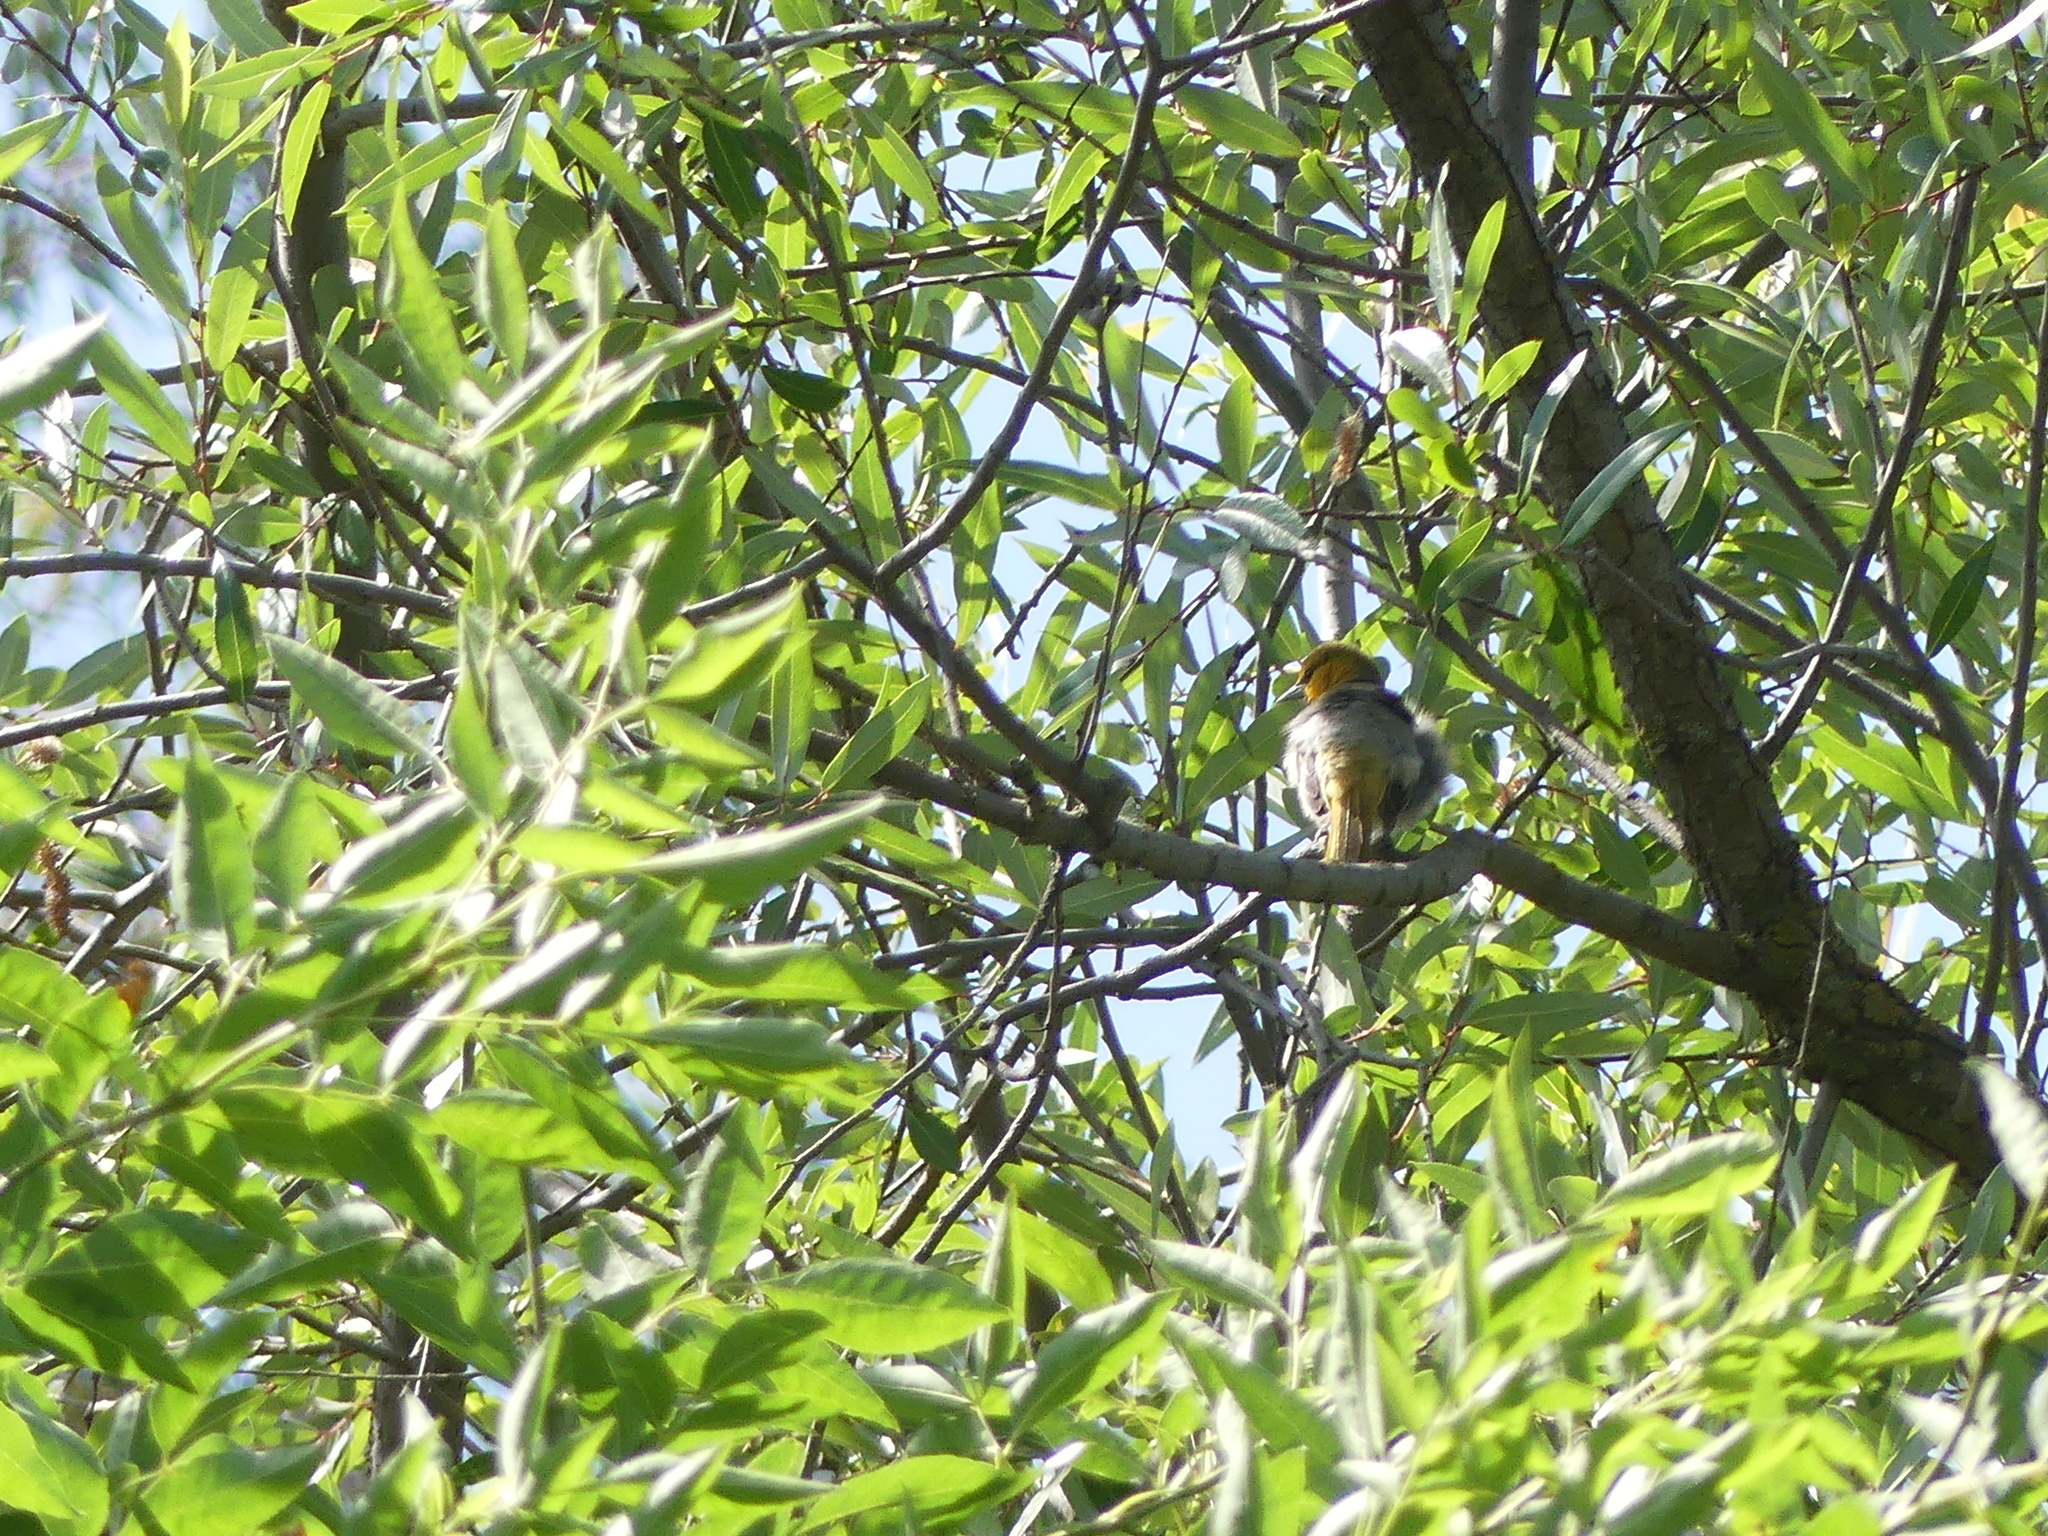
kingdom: Animalia
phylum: Chordata
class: Aves
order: Passeriformes
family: Icteridae
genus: Icterus
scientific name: Icterus bullockii
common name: Bullock's oriole
